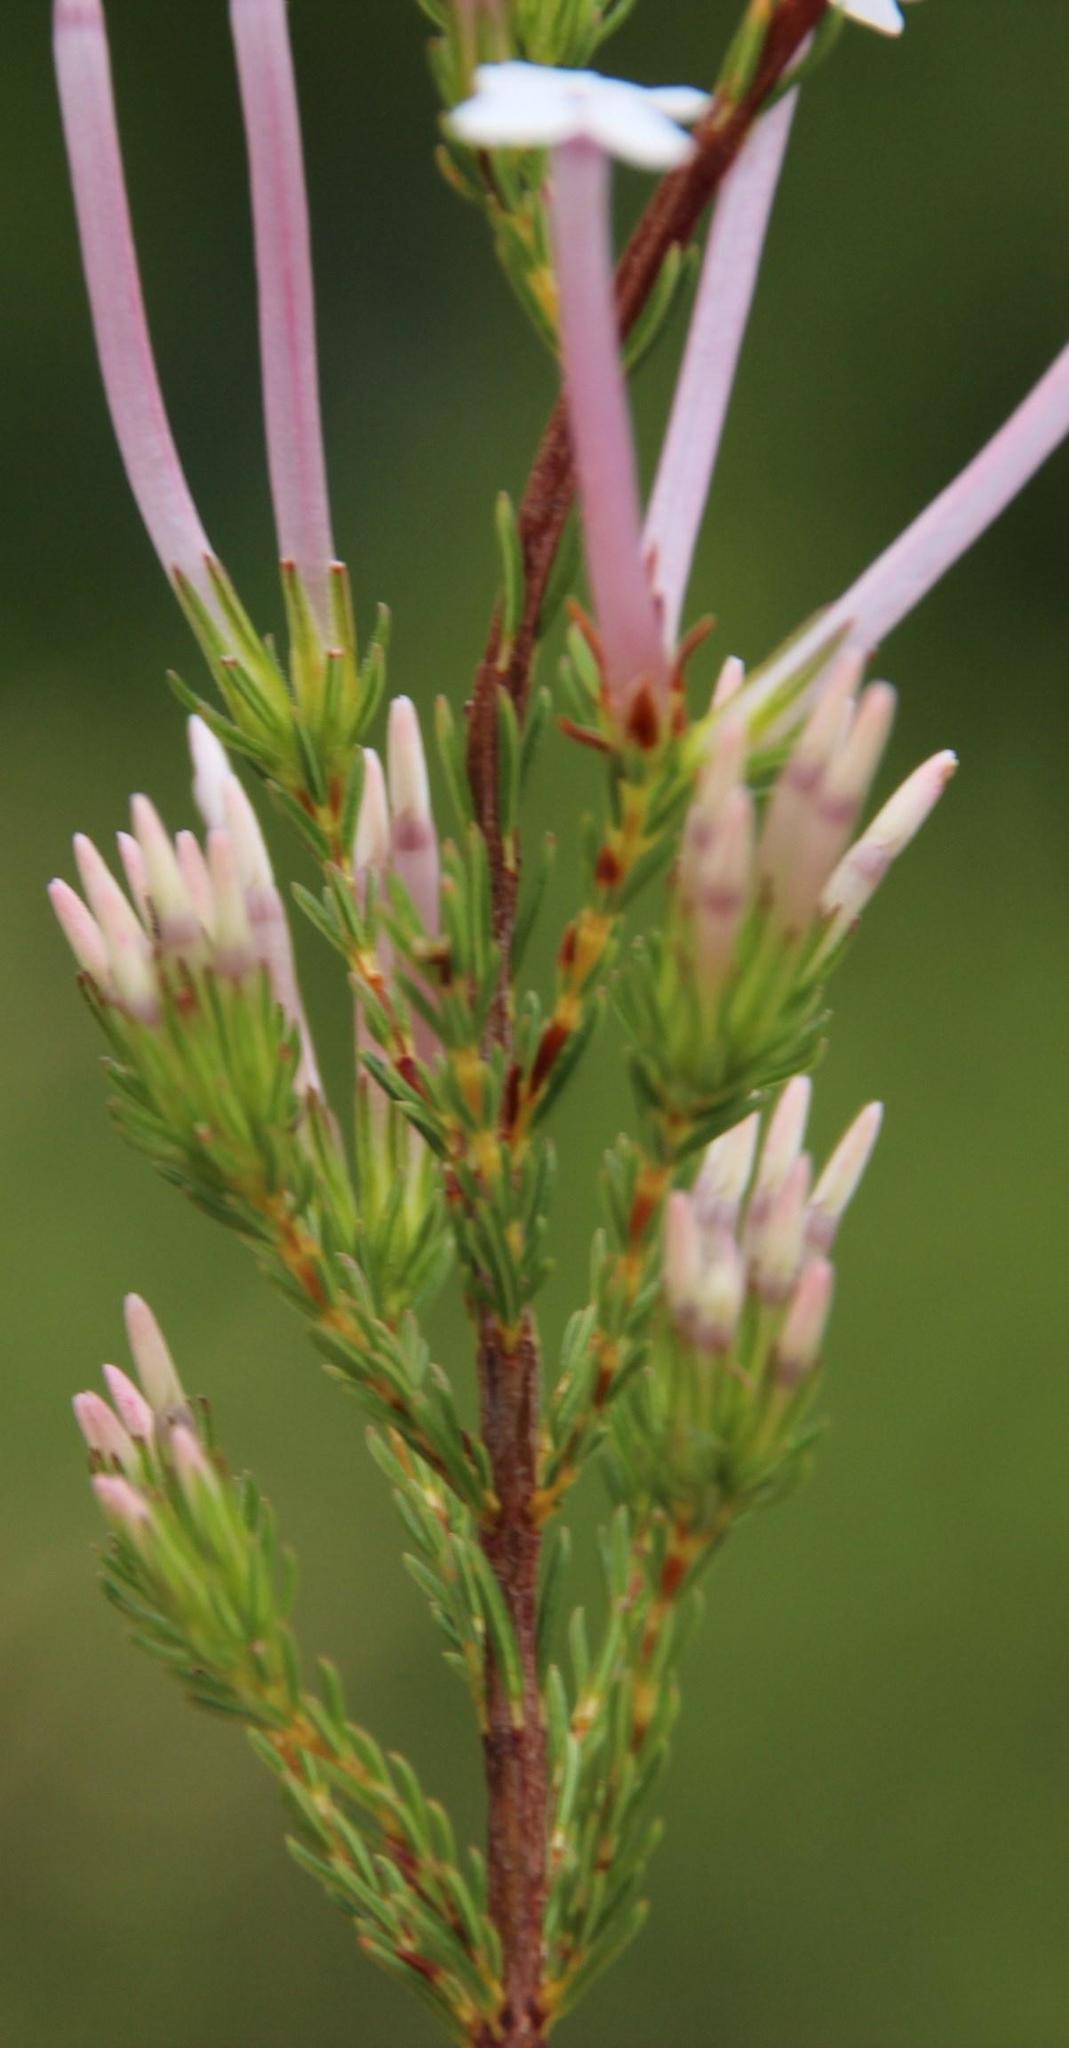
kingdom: Plantae
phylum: Tracheophyta
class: Magnoliopsida
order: Ericales
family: Ericaceae
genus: Erica
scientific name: Erica infundibuliformis
